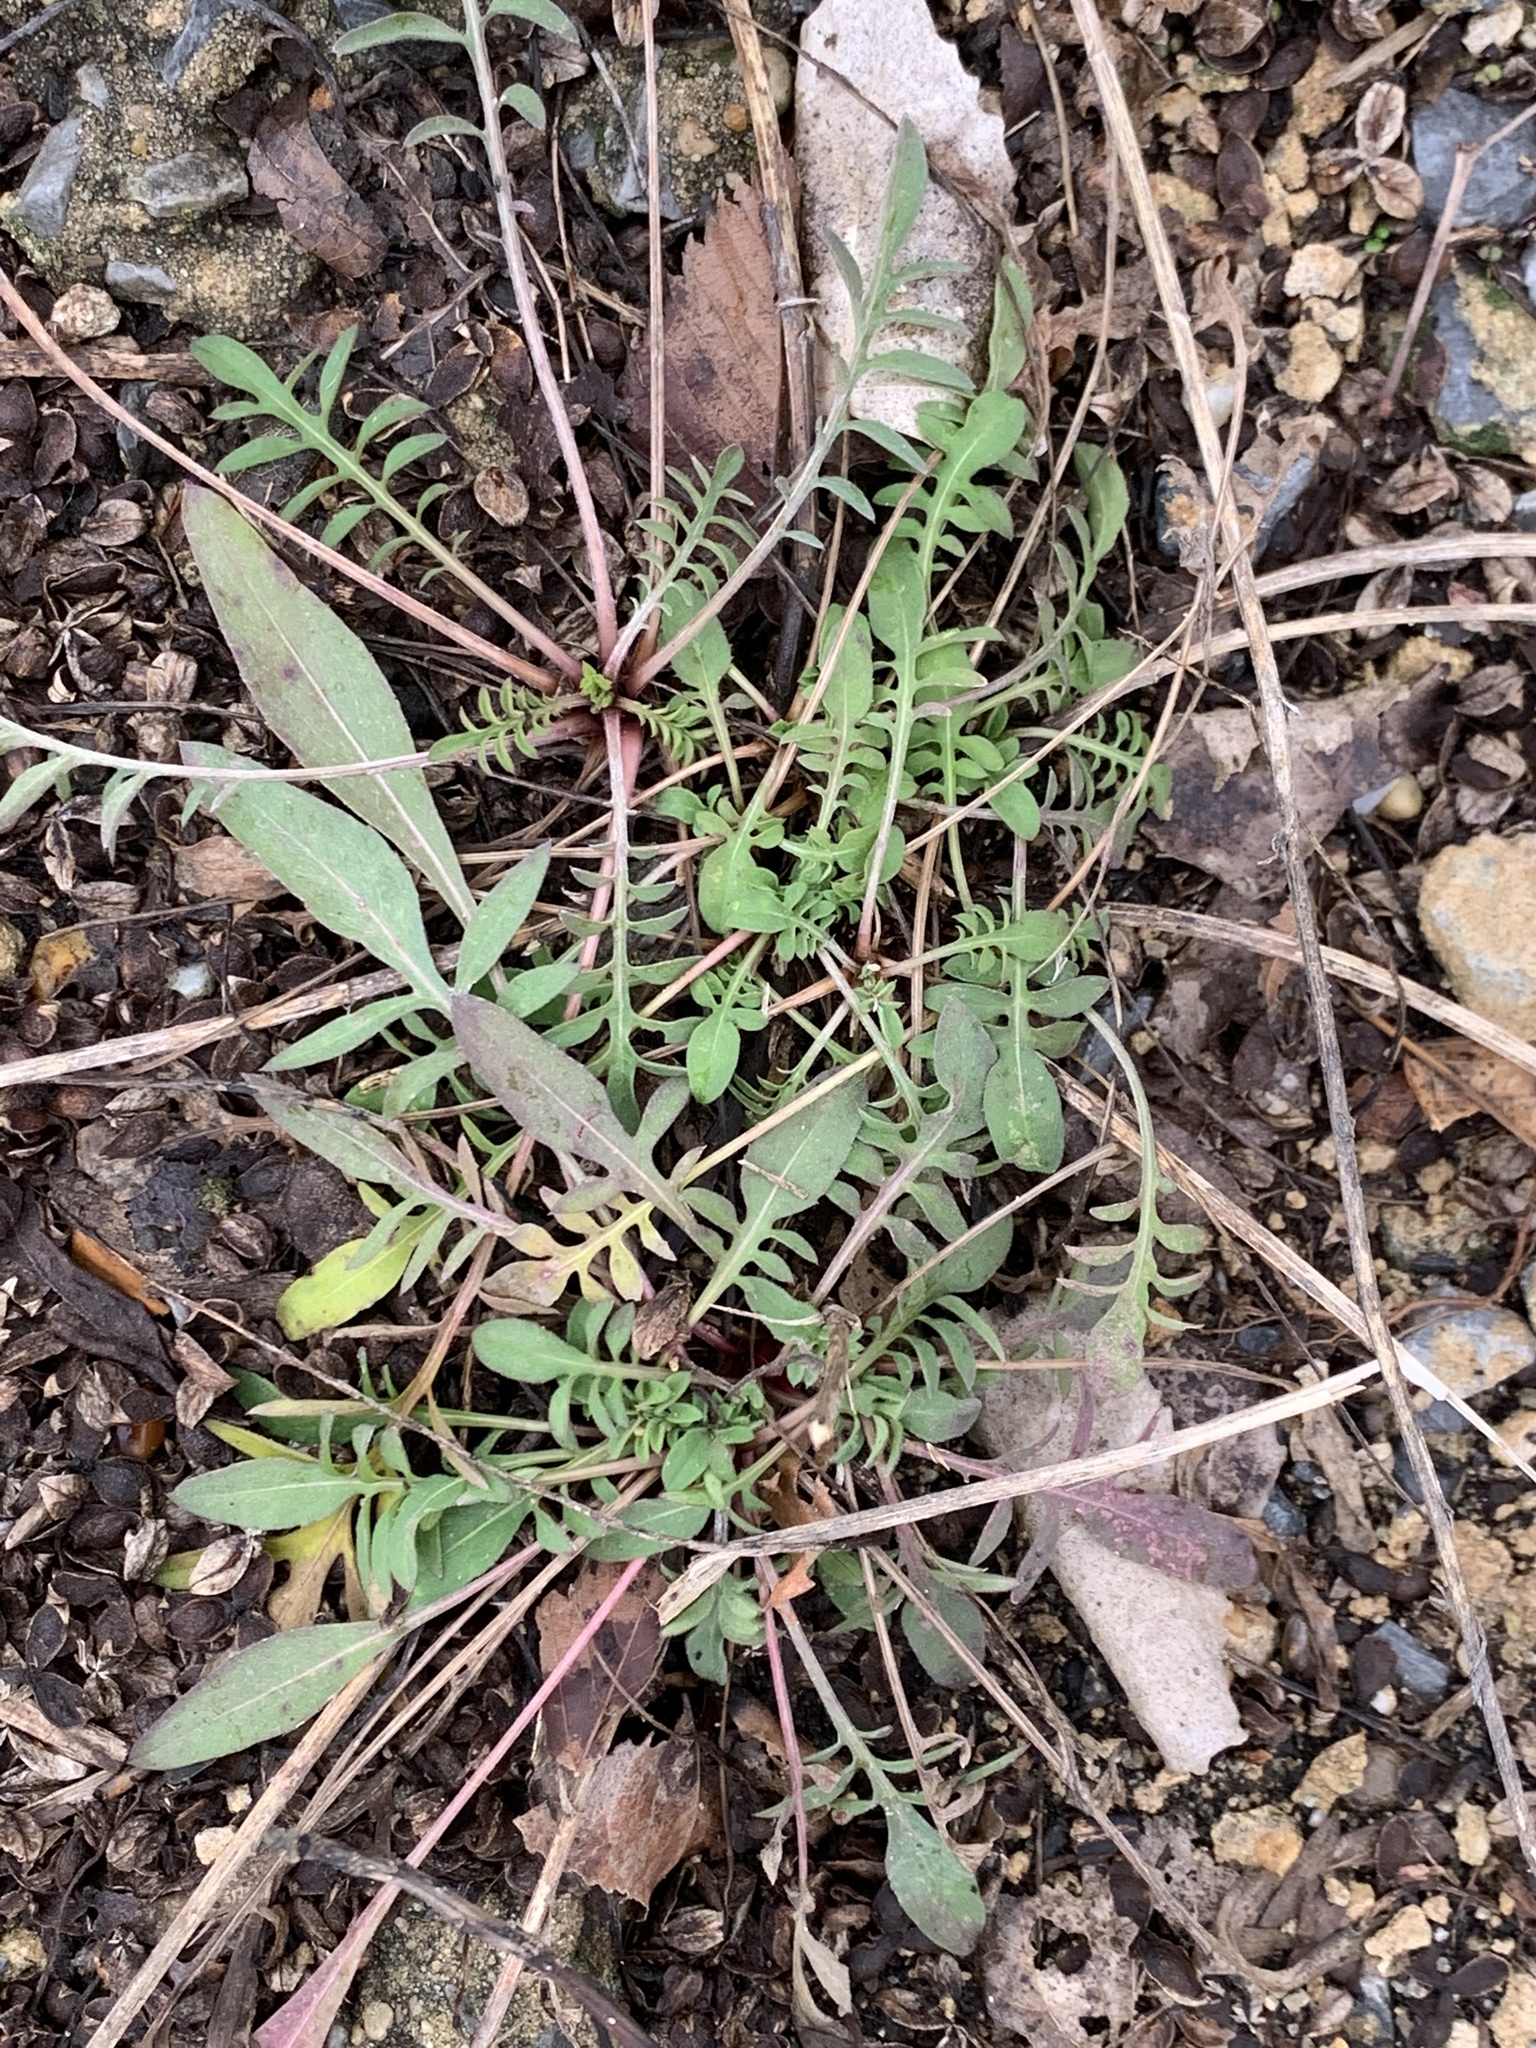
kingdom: Plantae
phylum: Tracheophyta
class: Magnoliopsida
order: Asterales
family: Asteraceae
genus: Centaurea
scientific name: Centaurea stoebe
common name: Spotted knapweed
